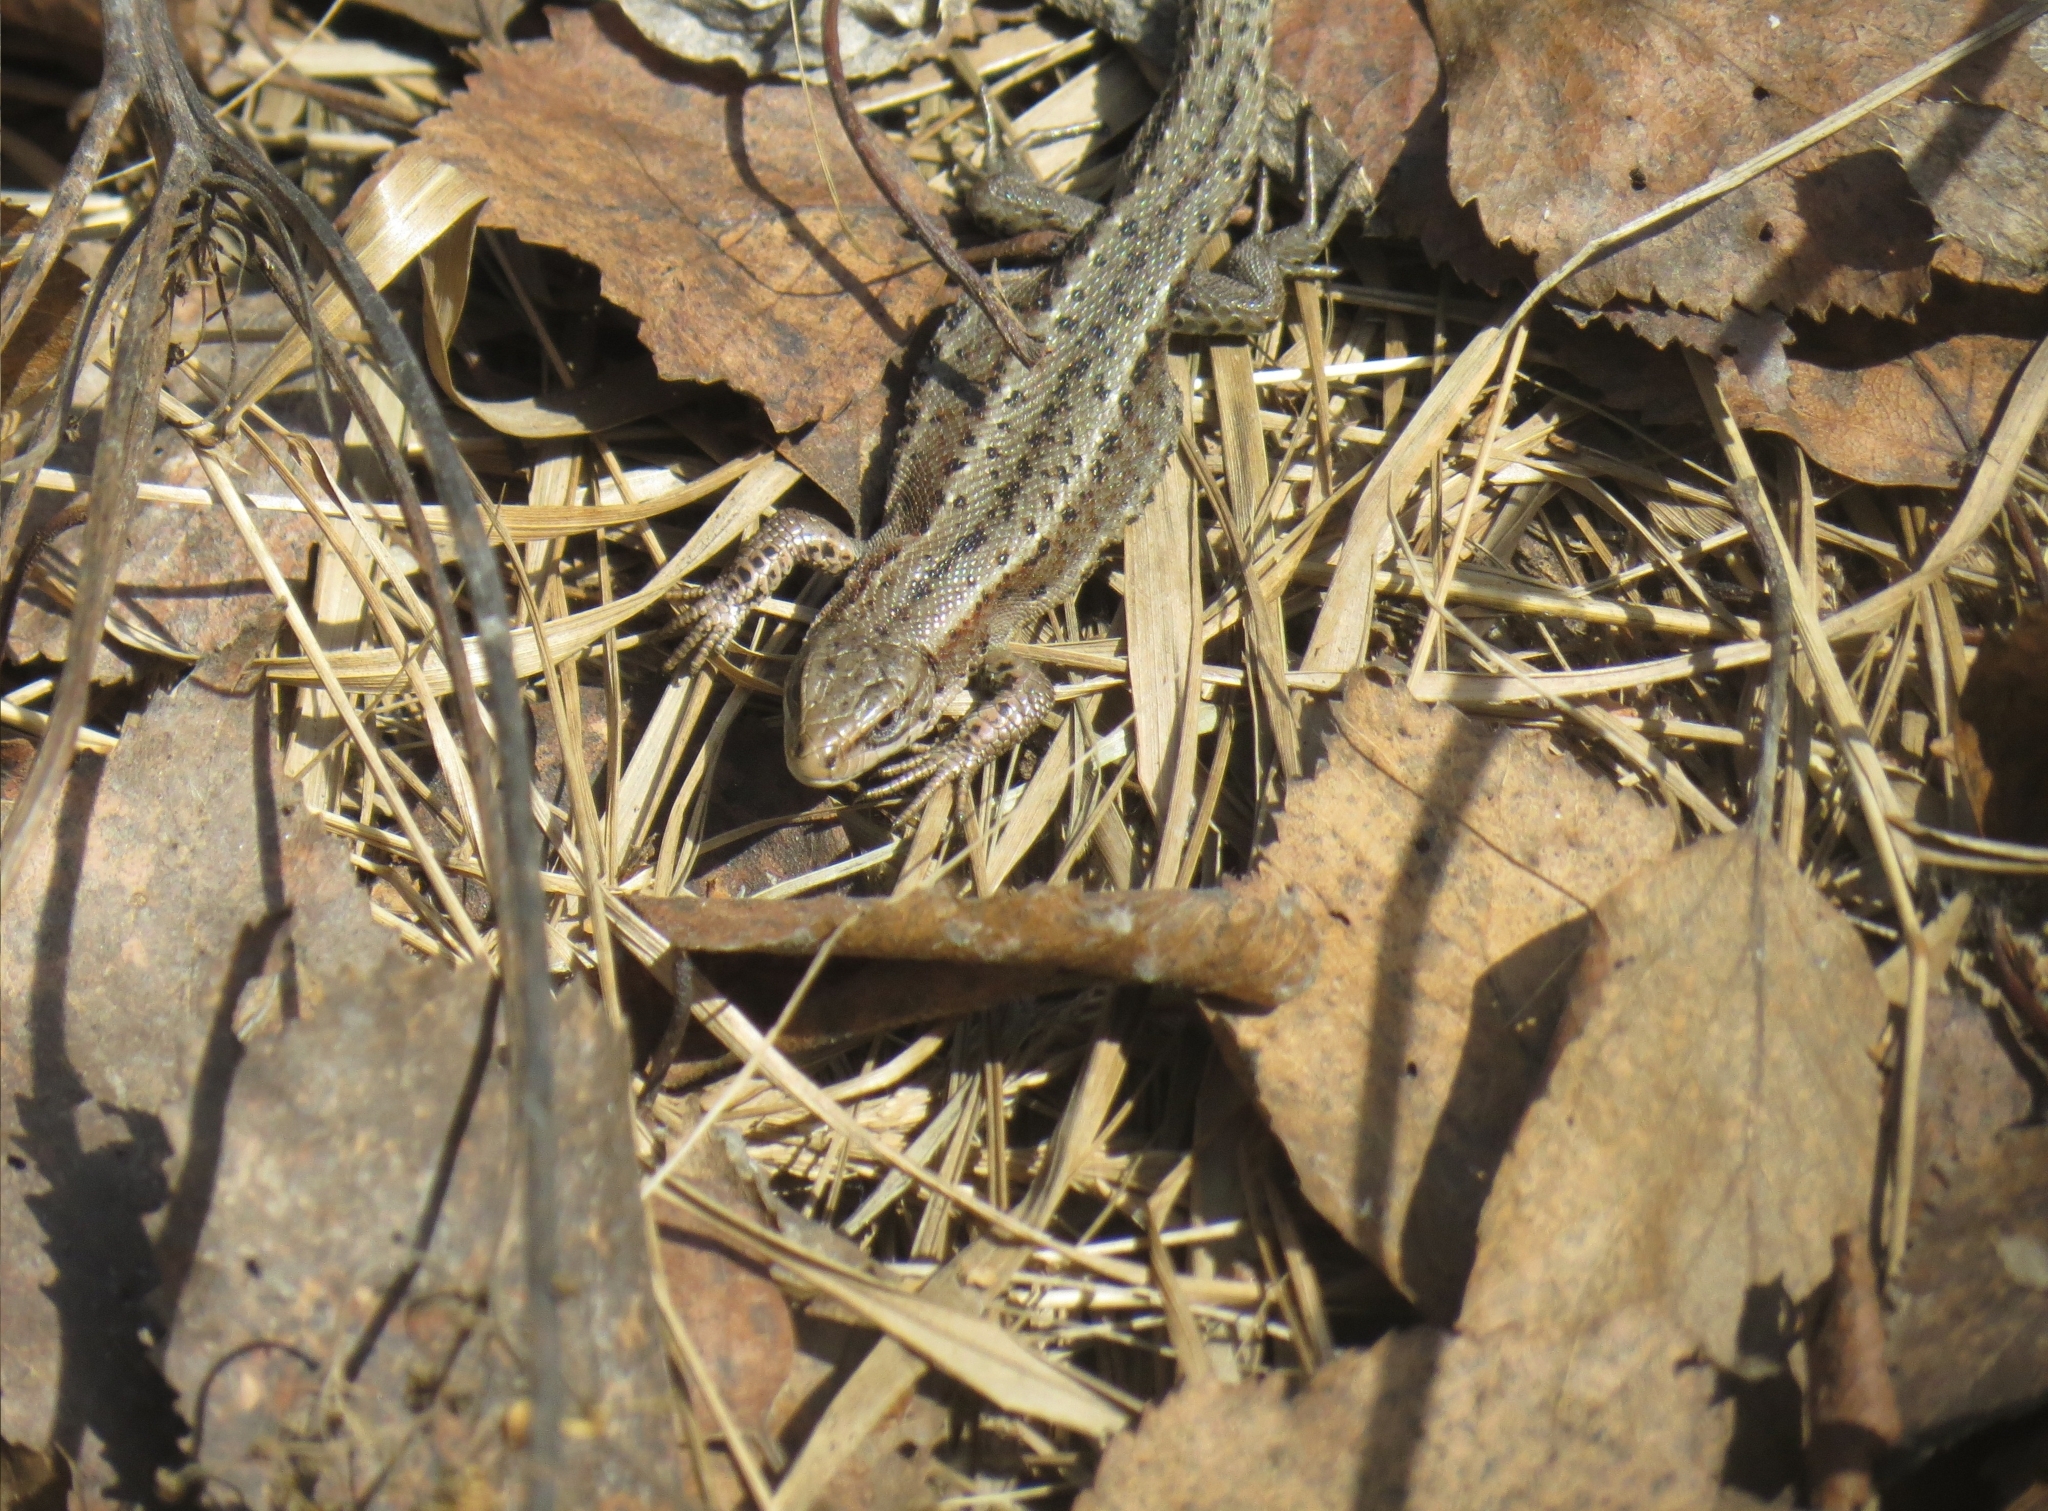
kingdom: Animalia
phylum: Chordata
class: Squamata
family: Lacertidae
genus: Zootoca
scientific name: Zootoca vivipara
